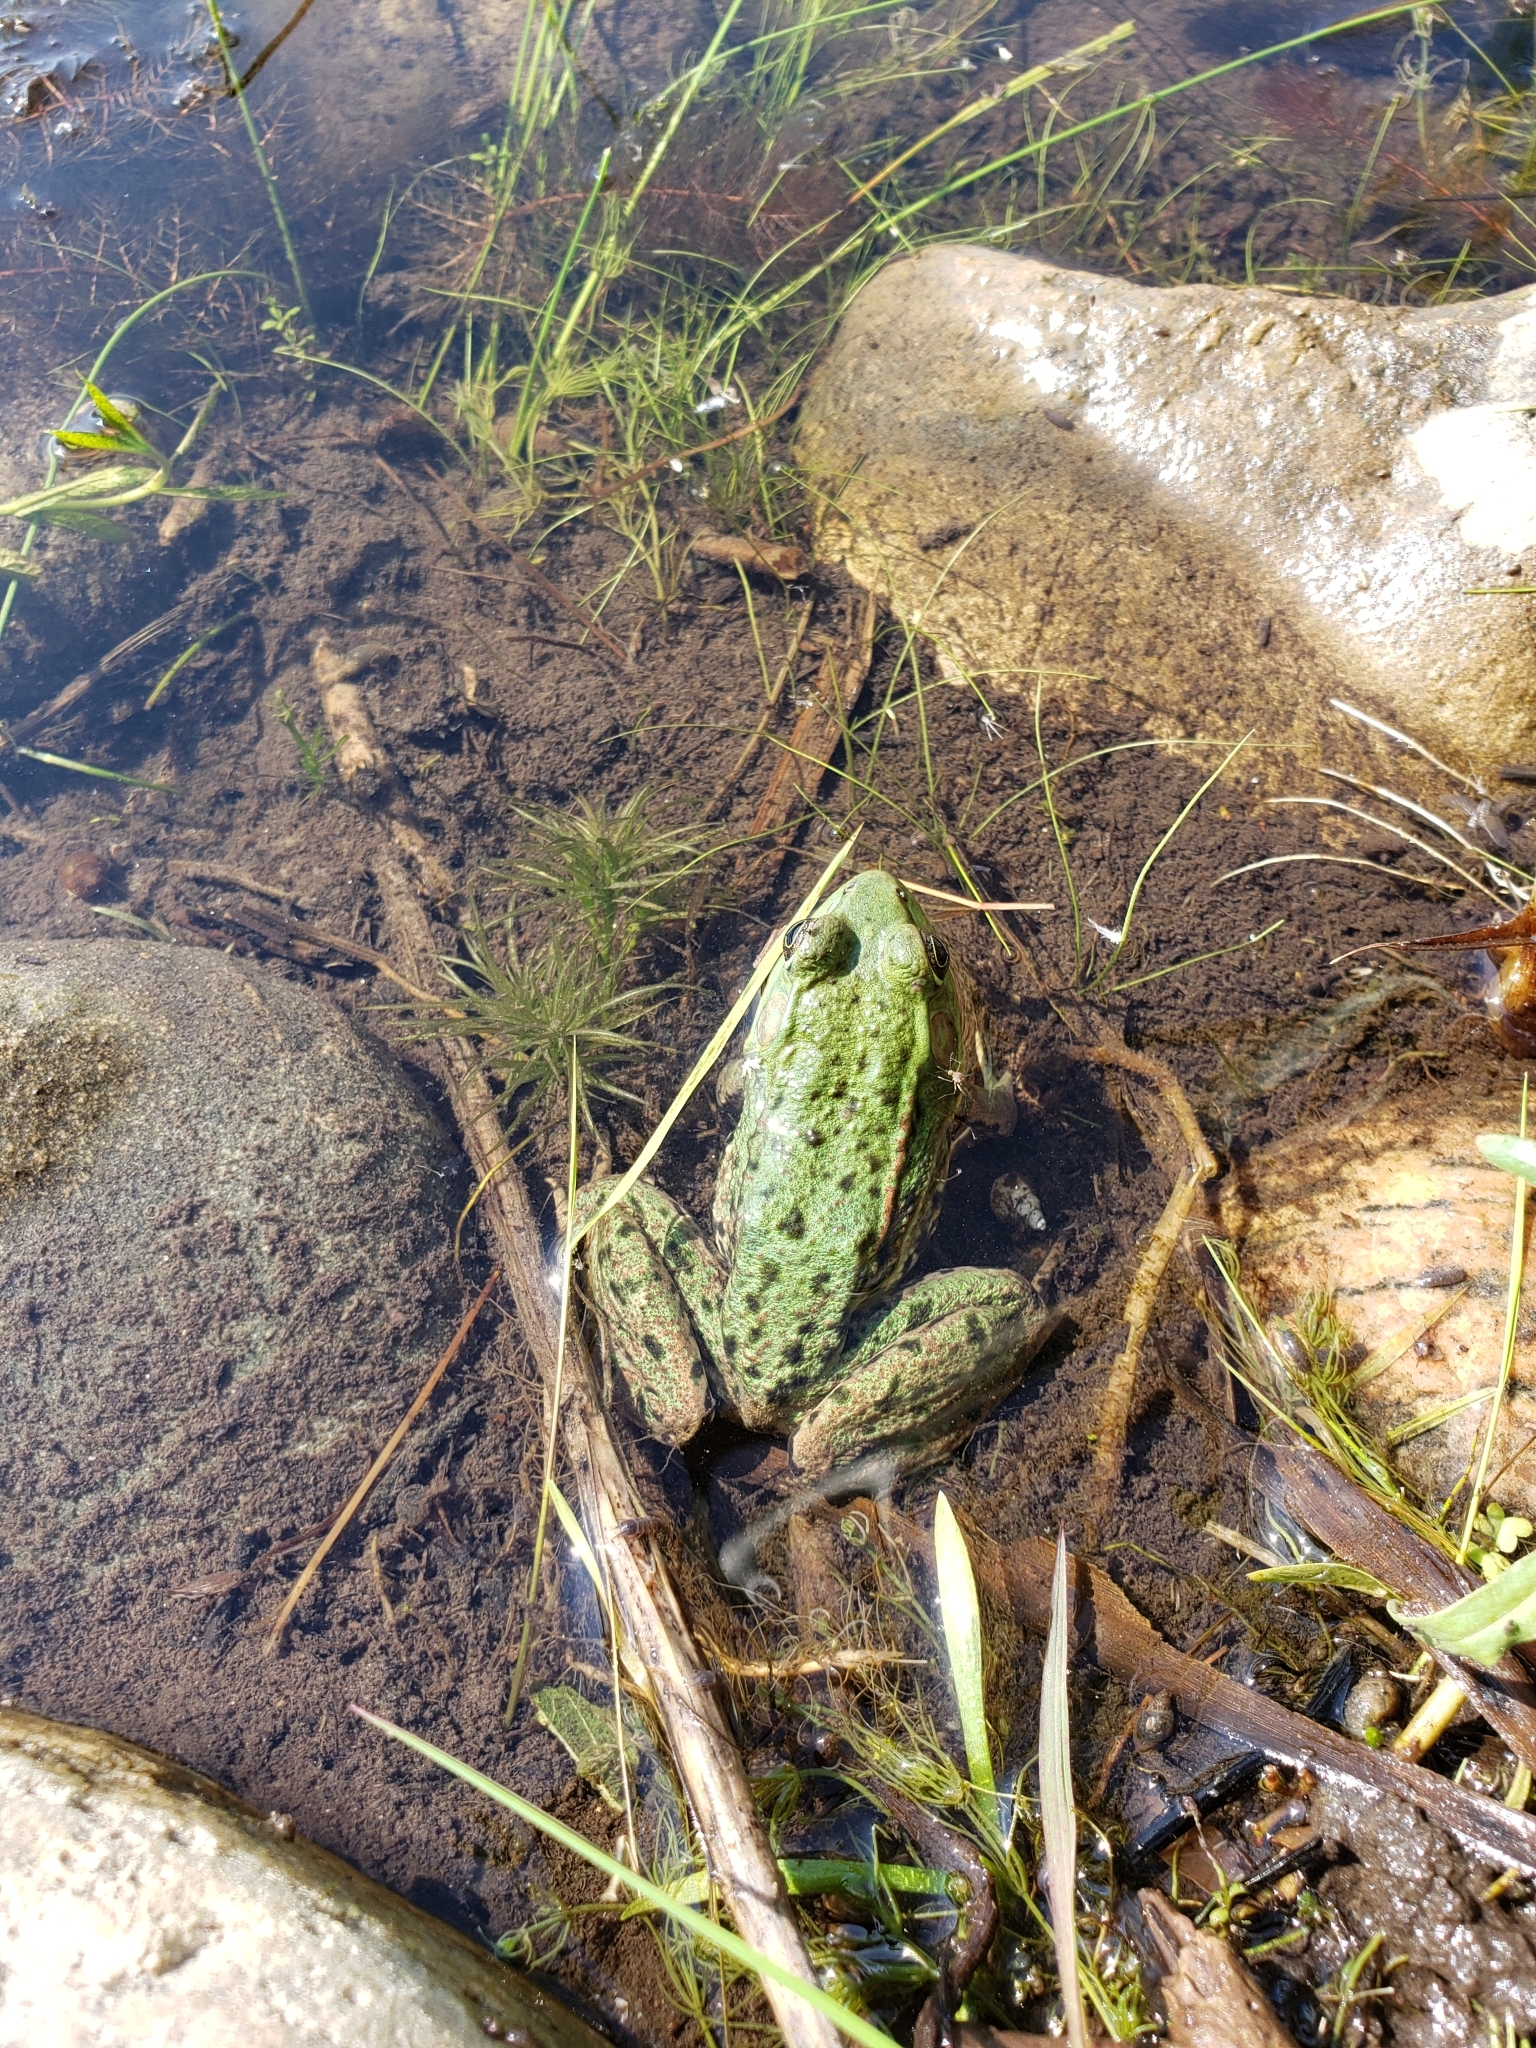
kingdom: Animalia
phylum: Chordata
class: Amphibia
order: Anura
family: Ranidae
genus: Lithobates
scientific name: Lithobates clamitans
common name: Green frog
